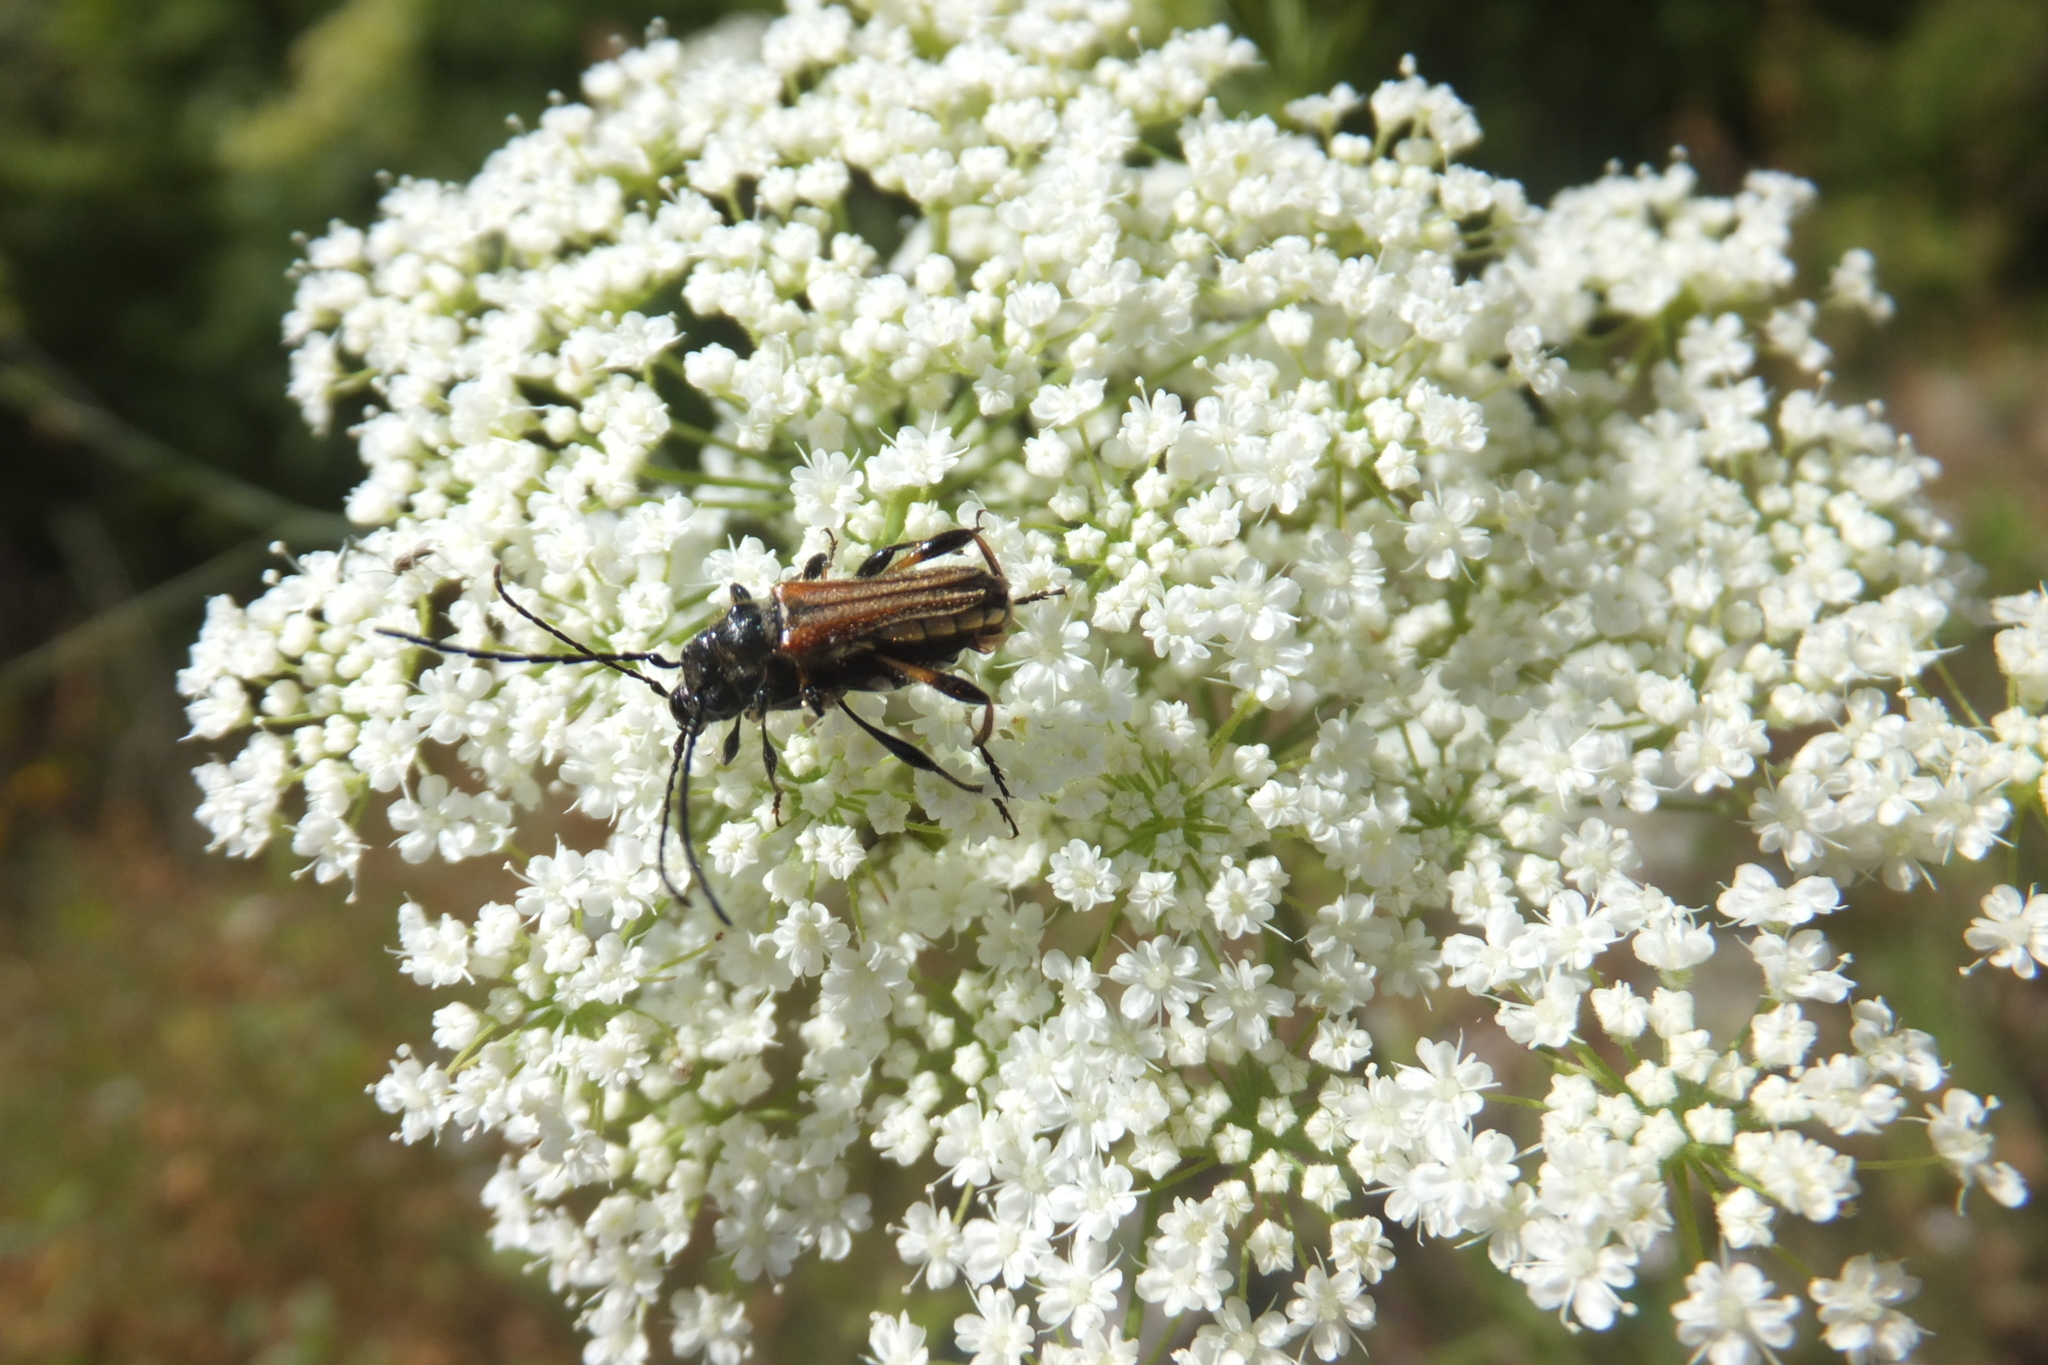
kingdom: Animalia
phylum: Arthropoda
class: Insecta
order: Coleoptera
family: Cerambycidae
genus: Stenopterus
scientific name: Stenopterus ater
